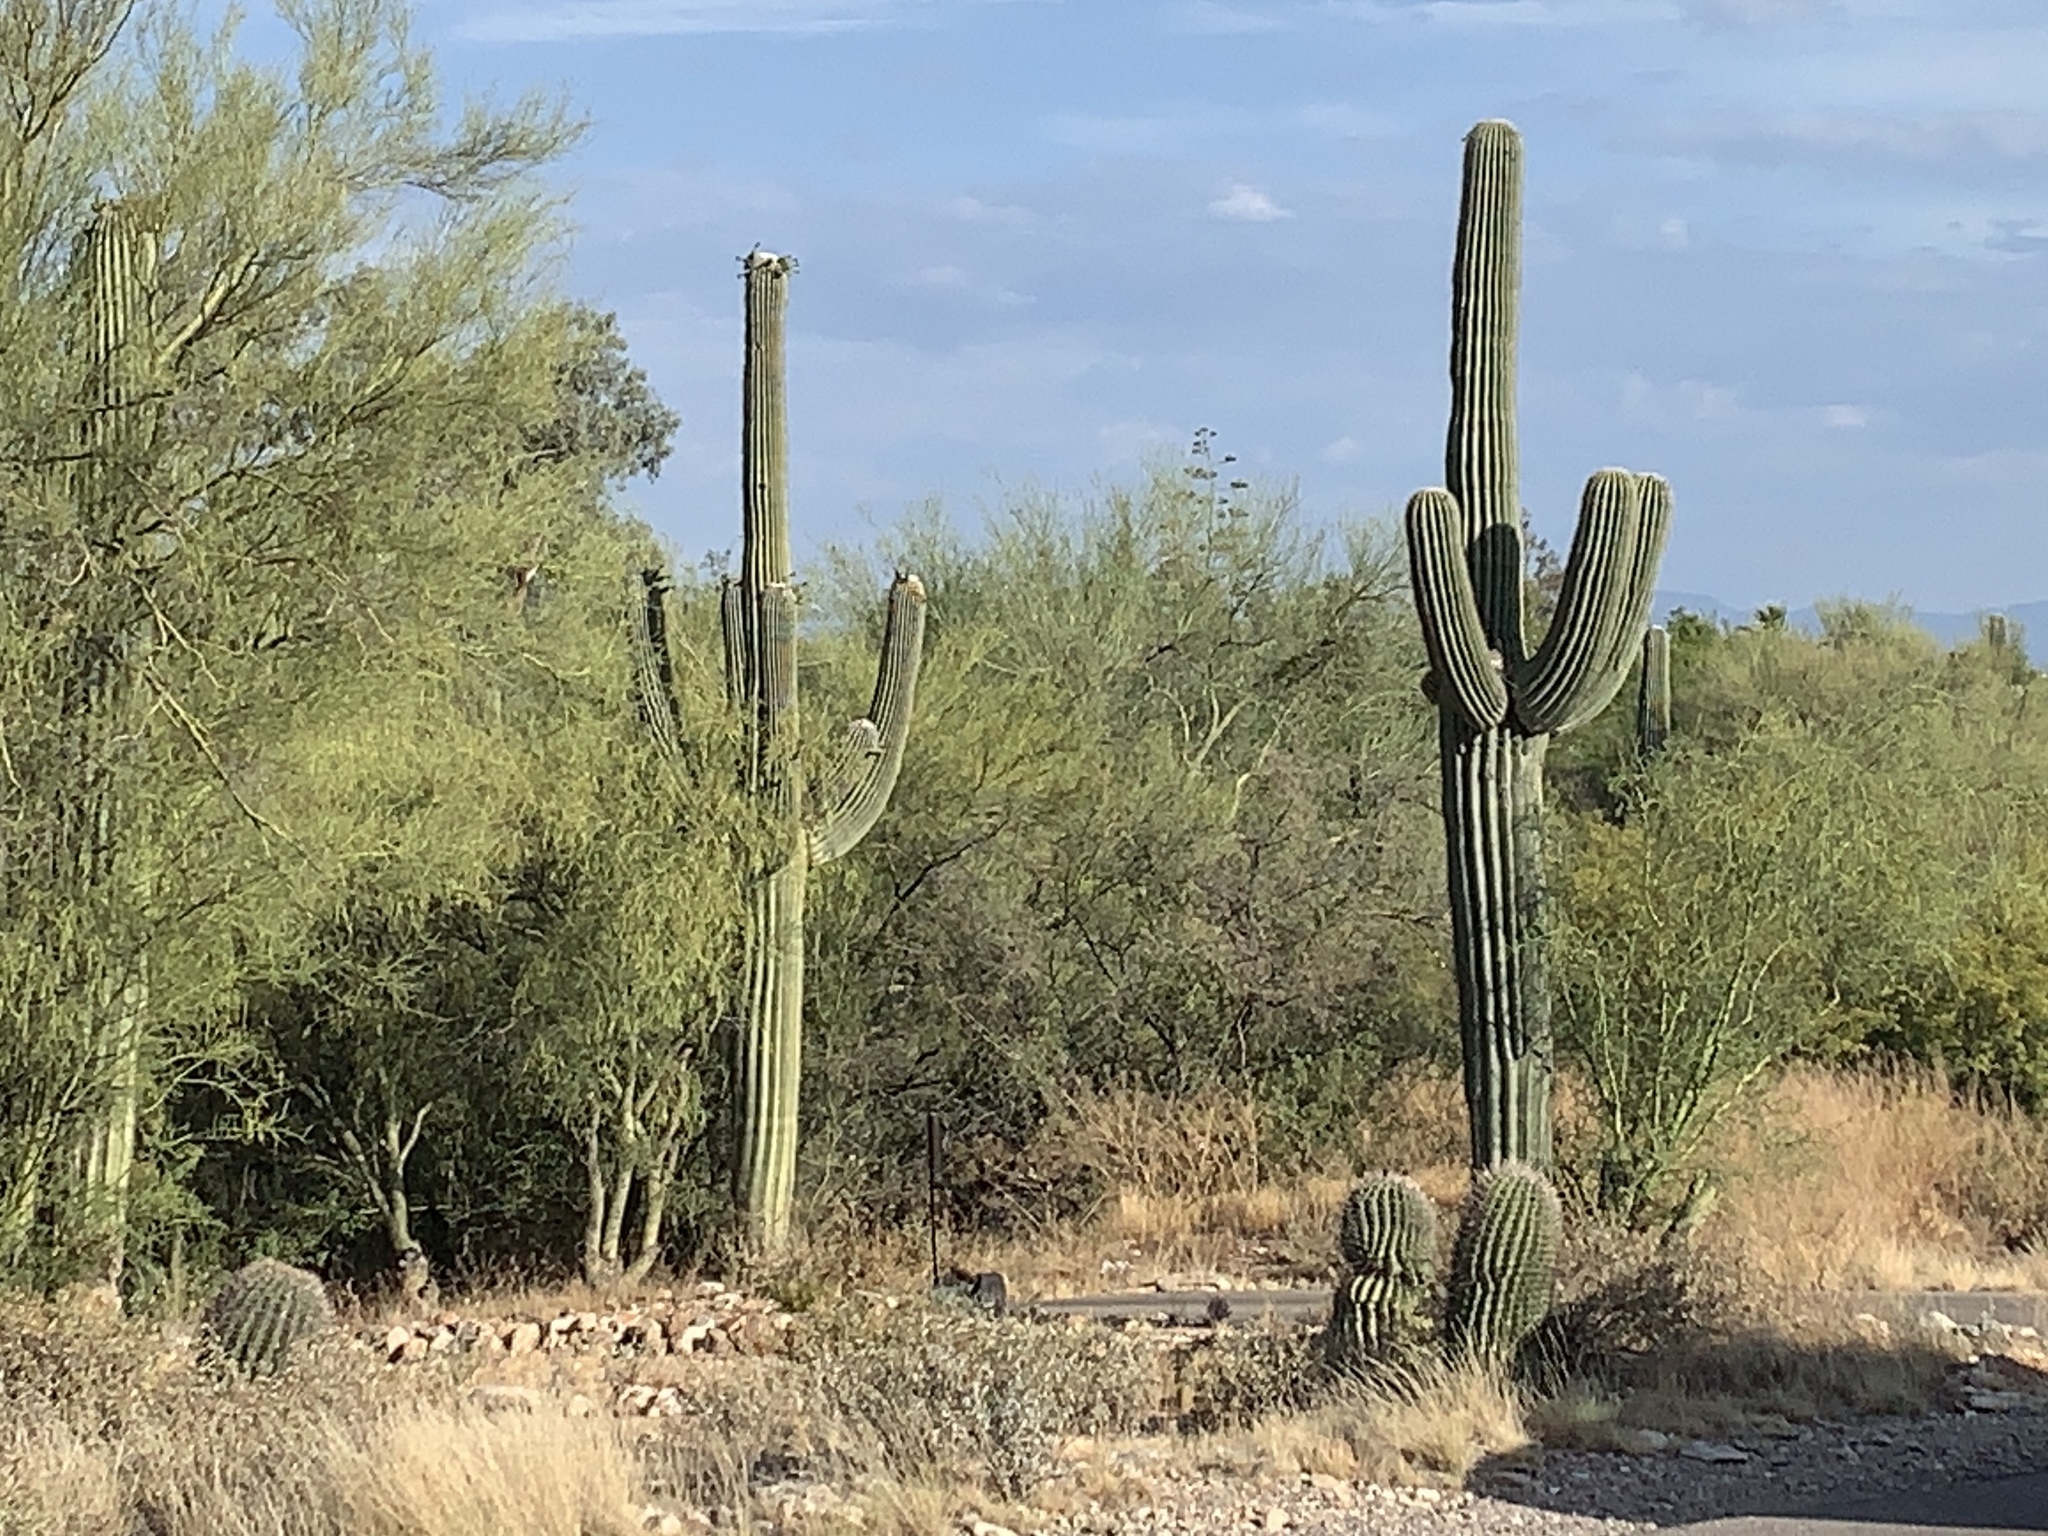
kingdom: Plantae
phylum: Tracheophyta
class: Magnoliopsida
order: Caryophyllales
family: Cactaceae
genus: Carnegiea
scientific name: Carnegiea gigantea
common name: Saguaro
